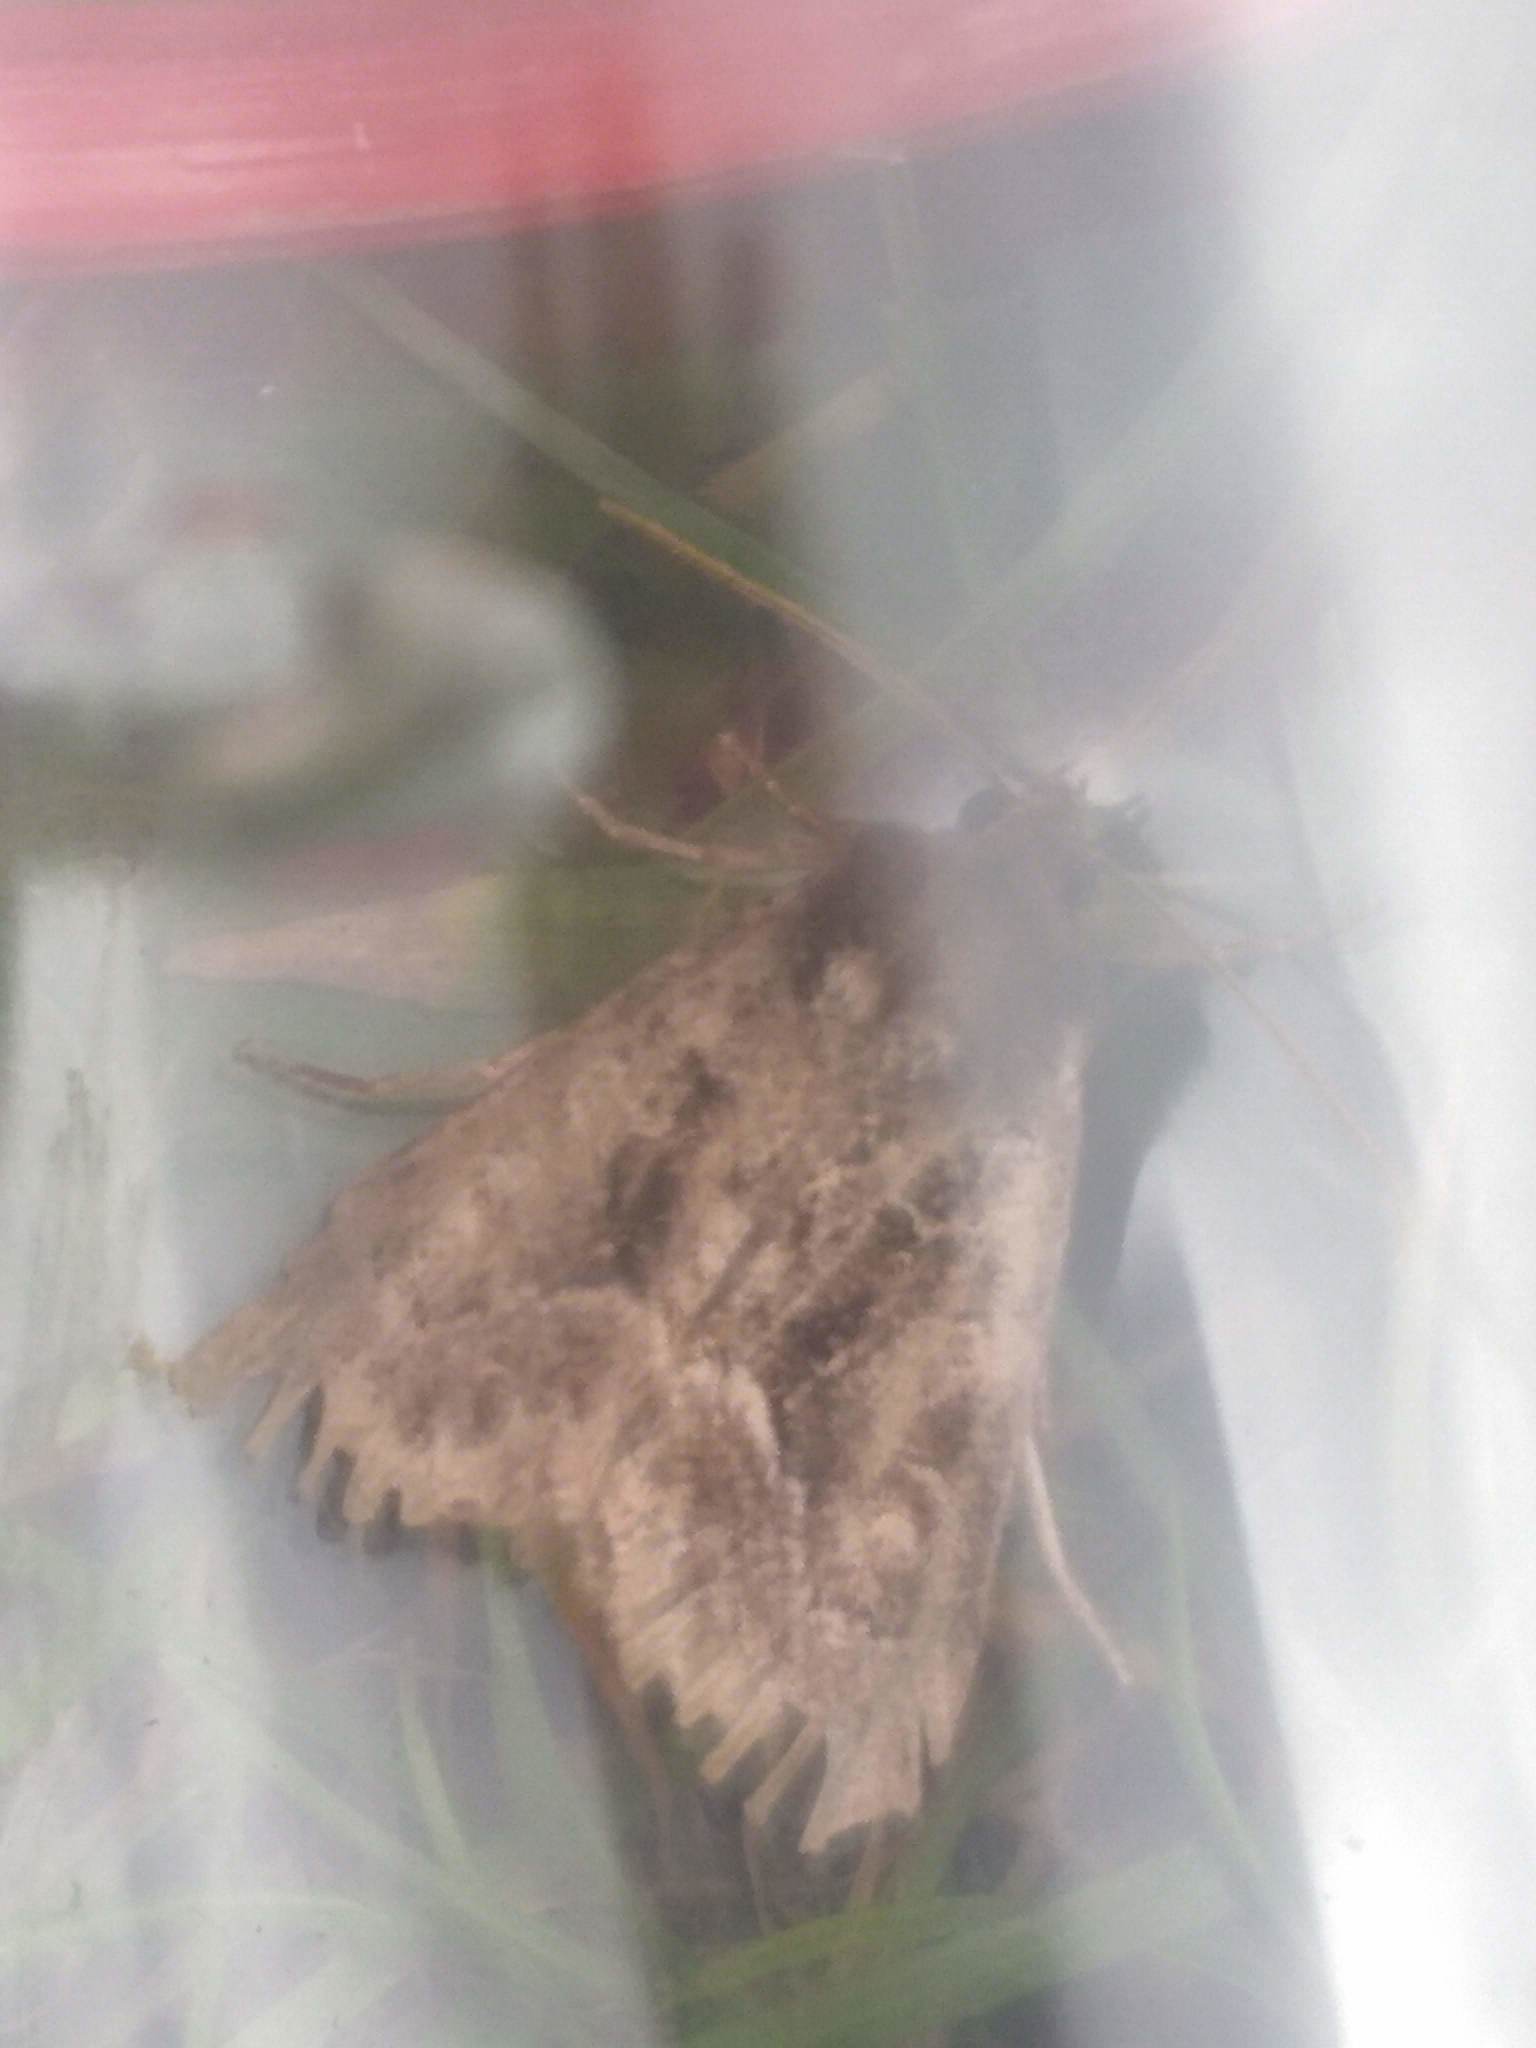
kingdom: Animalia
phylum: Arthropoda
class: Insecta
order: Lepidoptera
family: Noctuidae
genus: Thalpophila
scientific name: Thalpophila matura
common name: Straw underwing
